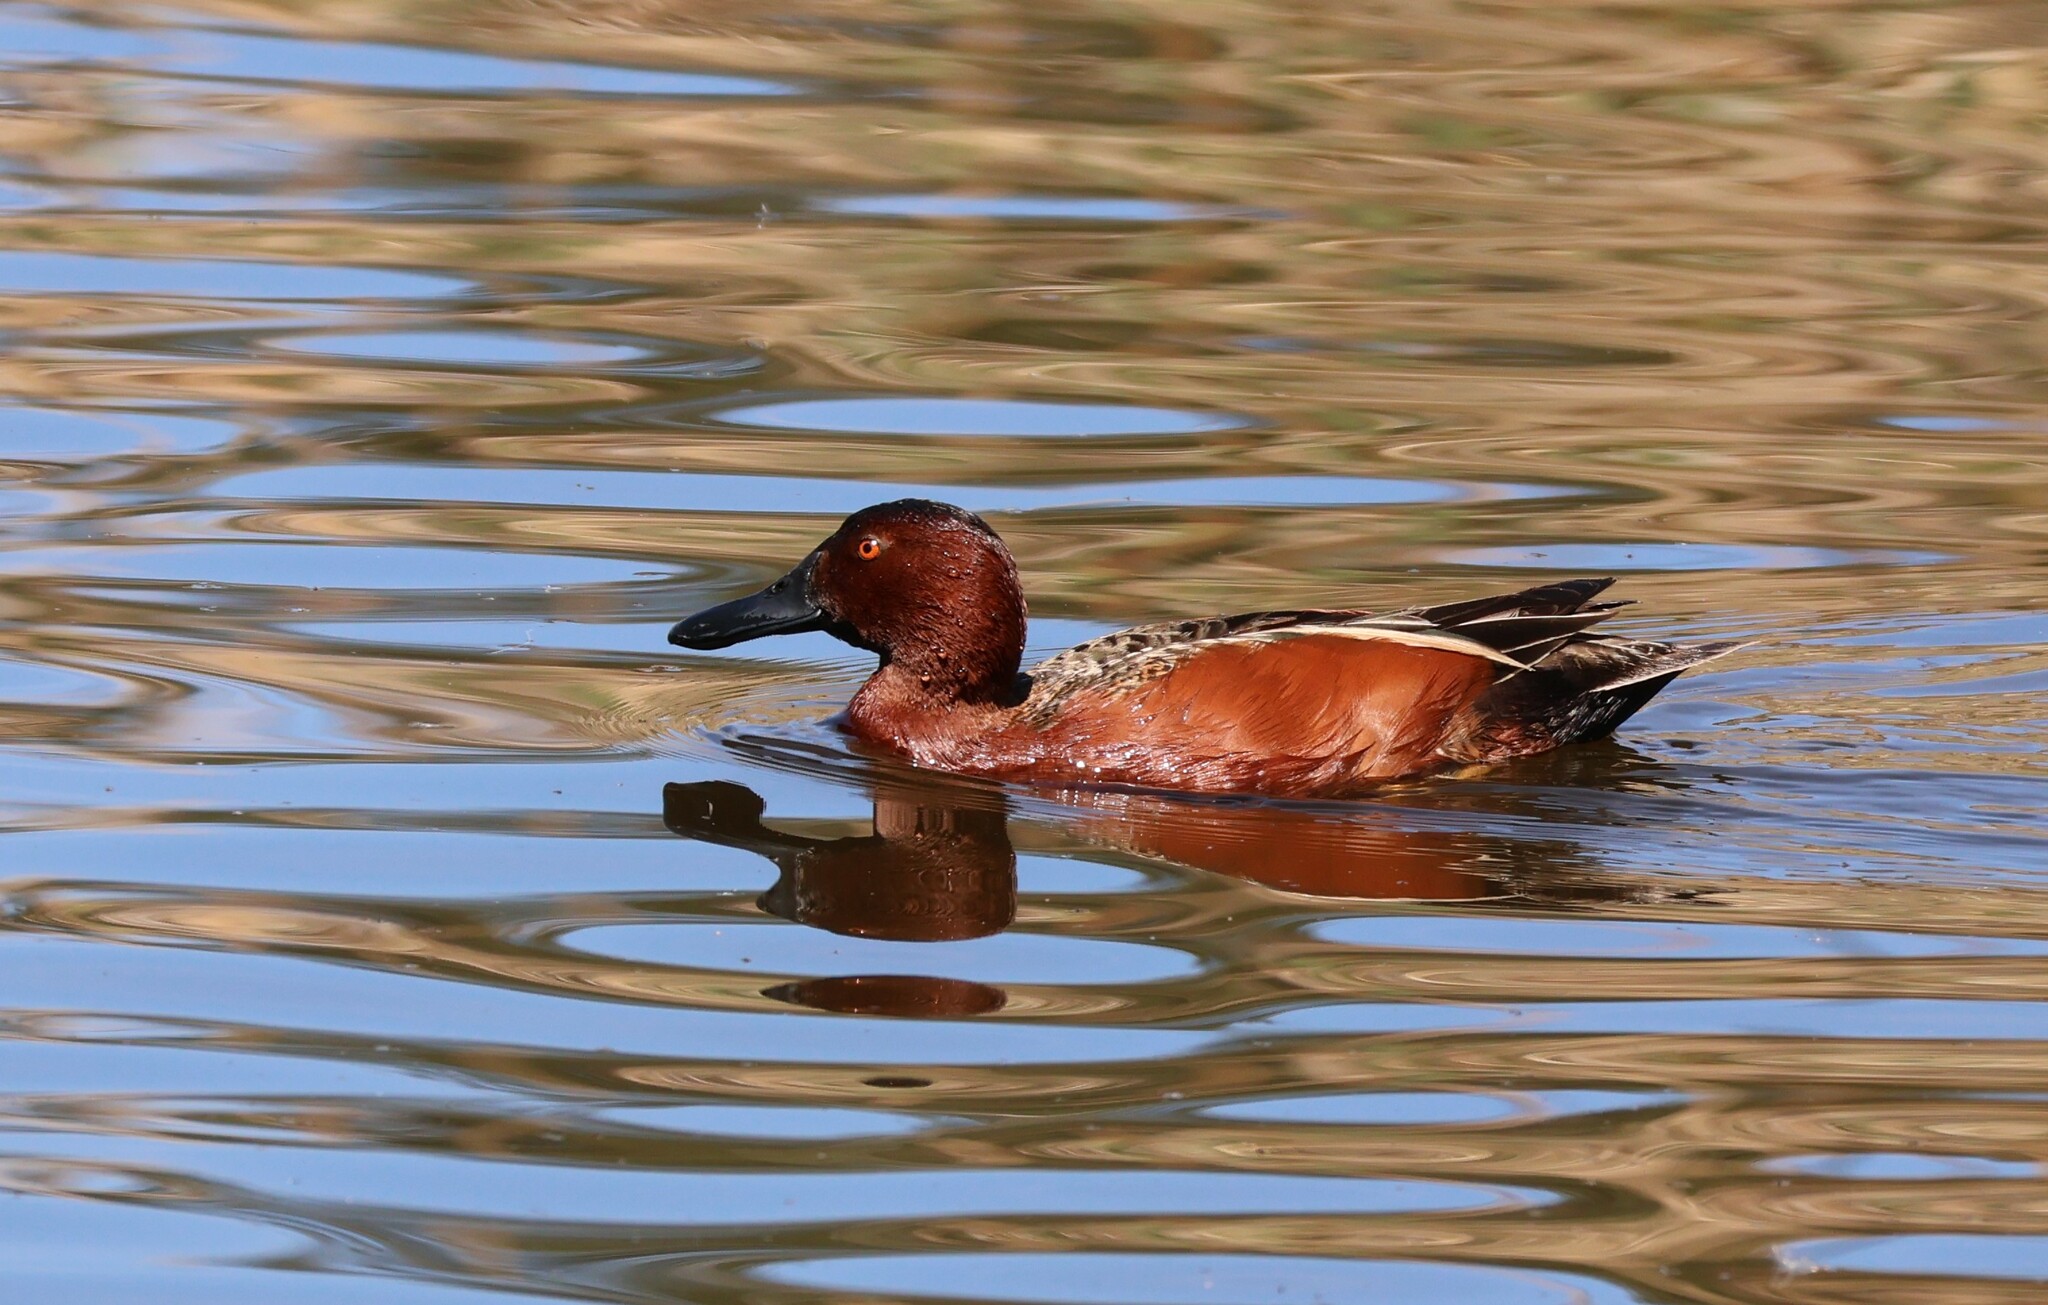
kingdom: Animalia
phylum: Chordata
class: Aves
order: Anseriformes
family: Anatidae
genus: Spatula
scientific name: Spatula cyanoptera
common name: Cinnamon teal
